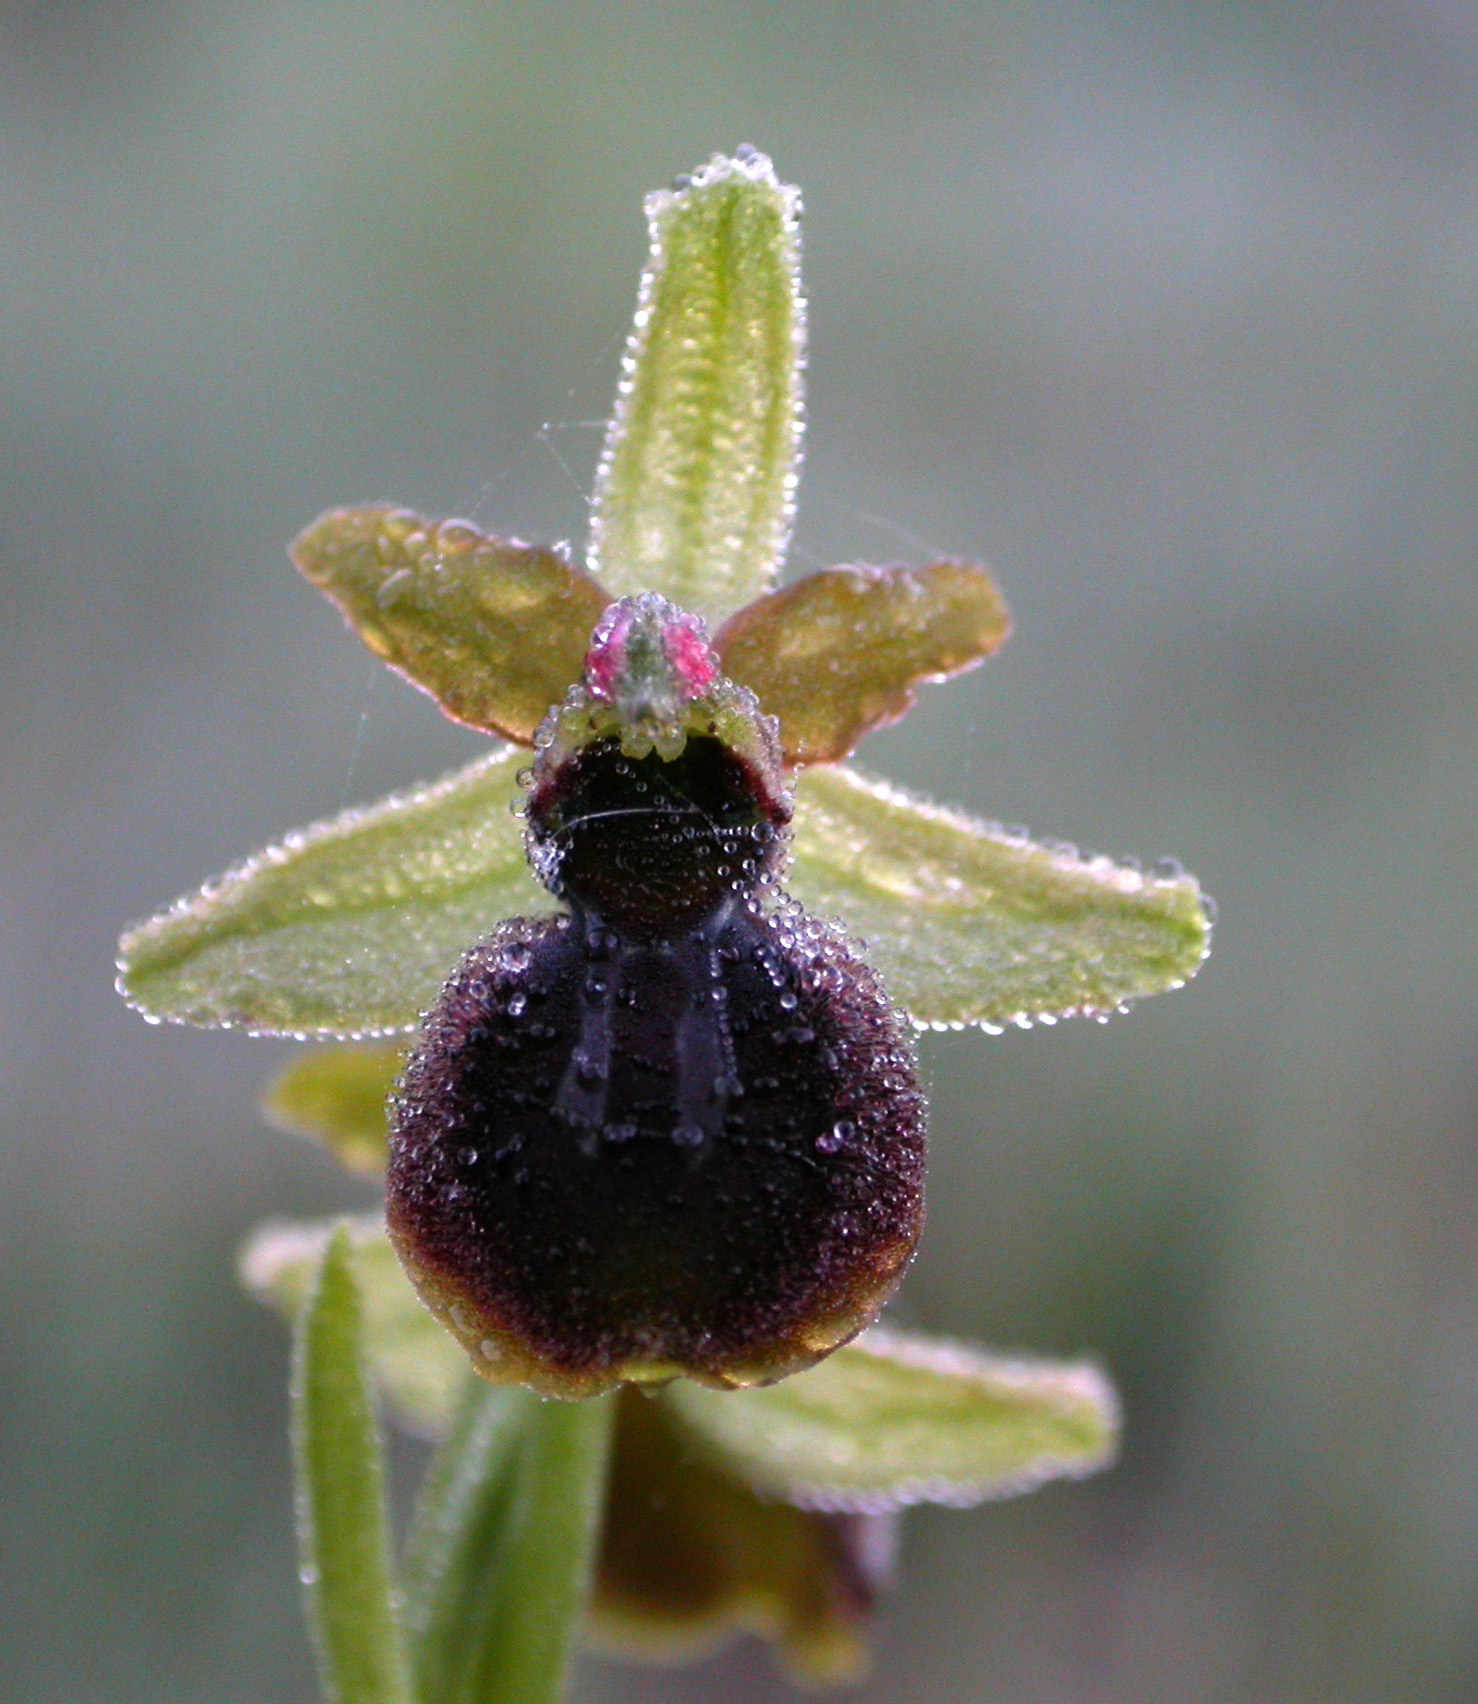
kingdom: Plantae
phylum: Tracheophyta
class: Liliopsida
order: Asparagales
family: Orchidaceae
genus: Ophrys
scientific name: Ophrys sphegodes
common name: Early spider-orchid
